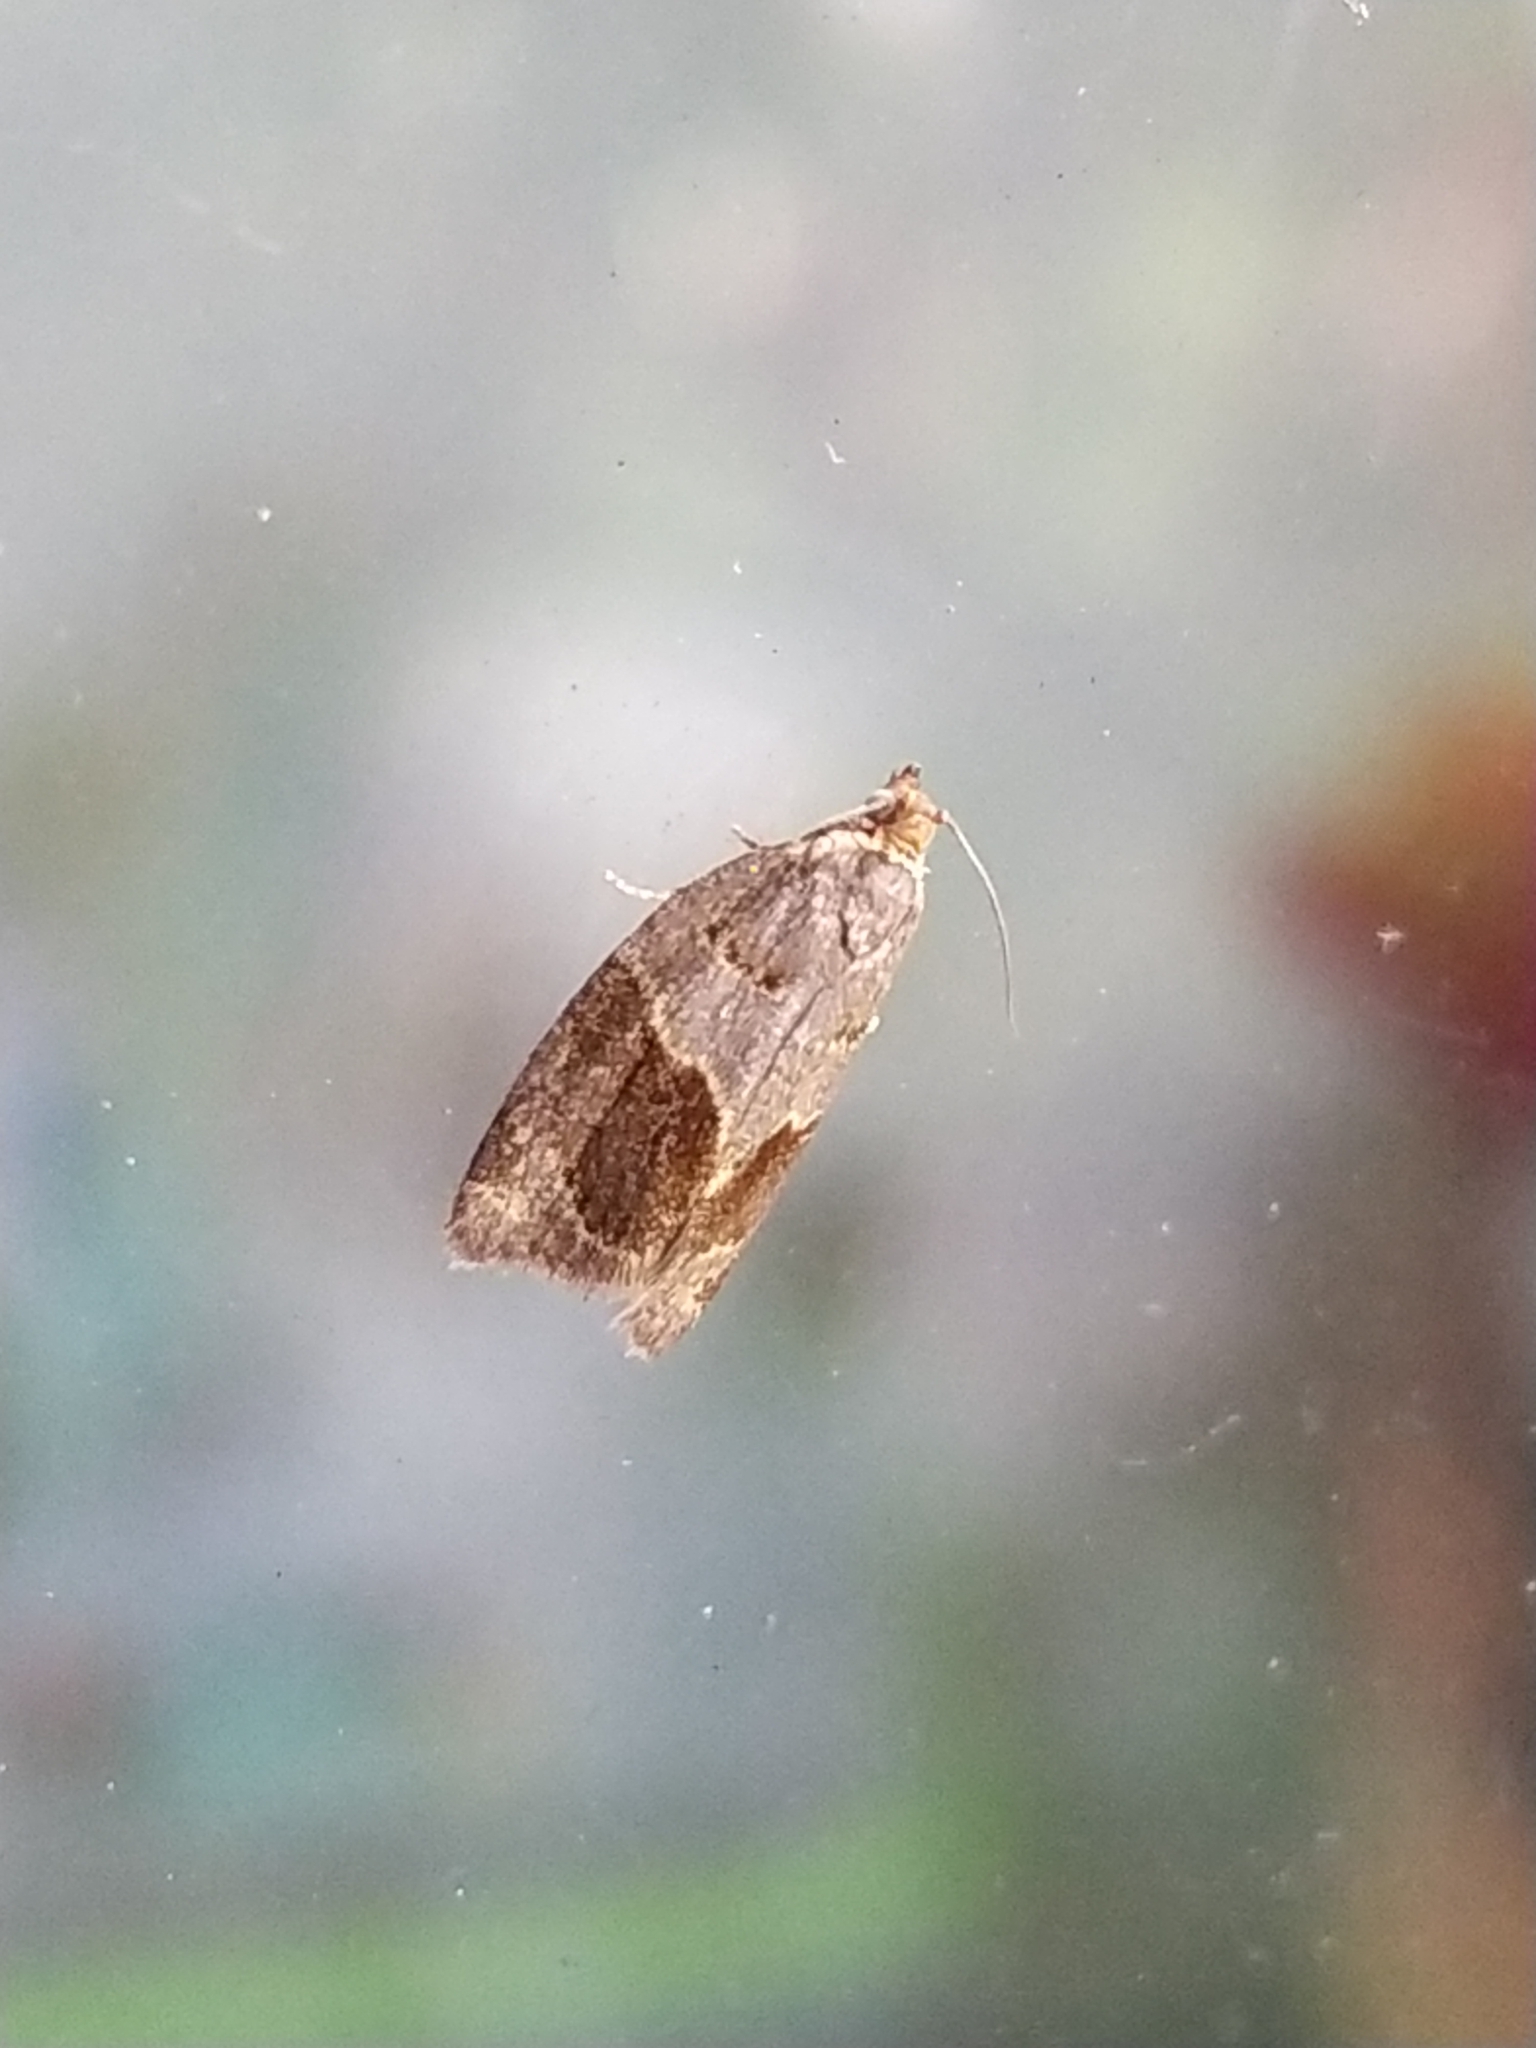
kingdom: Animalia
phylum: Arthropoda
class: Insecta
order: Lepidoptera
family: Tortricidae
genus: Clepsis
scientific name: Clepsis dumicolana
